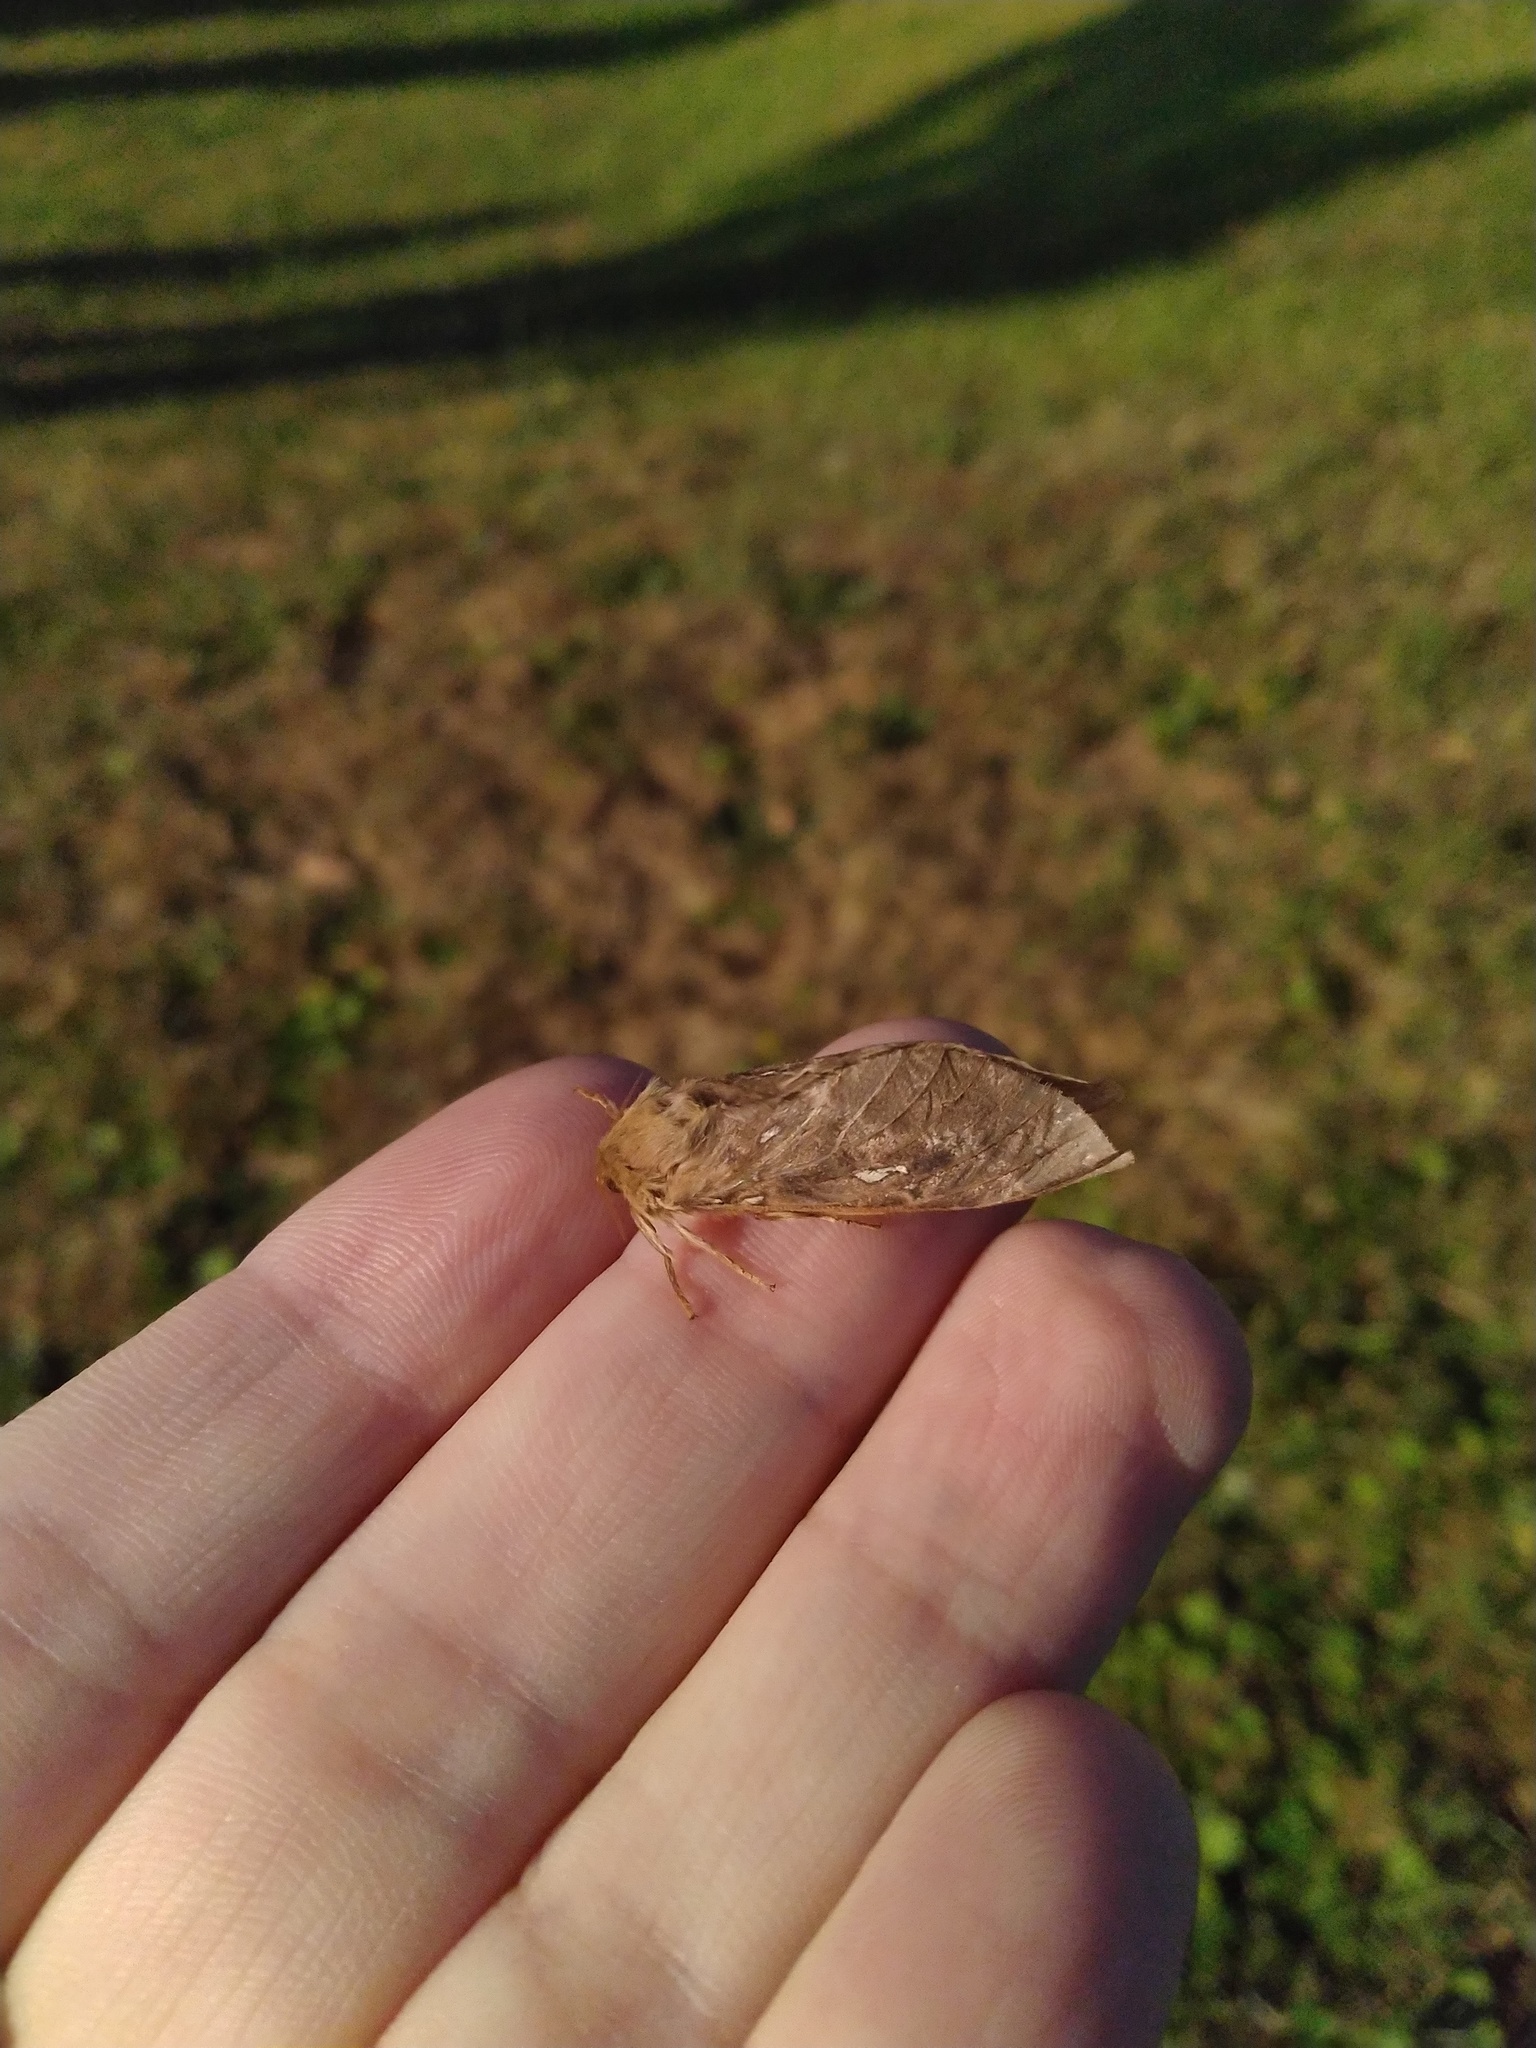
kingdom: Animalia
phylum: Arthropoda
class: Insecta
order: Lepidoptera
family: Hepialidae
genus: Wiseana
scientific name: Wiseana cervinata
